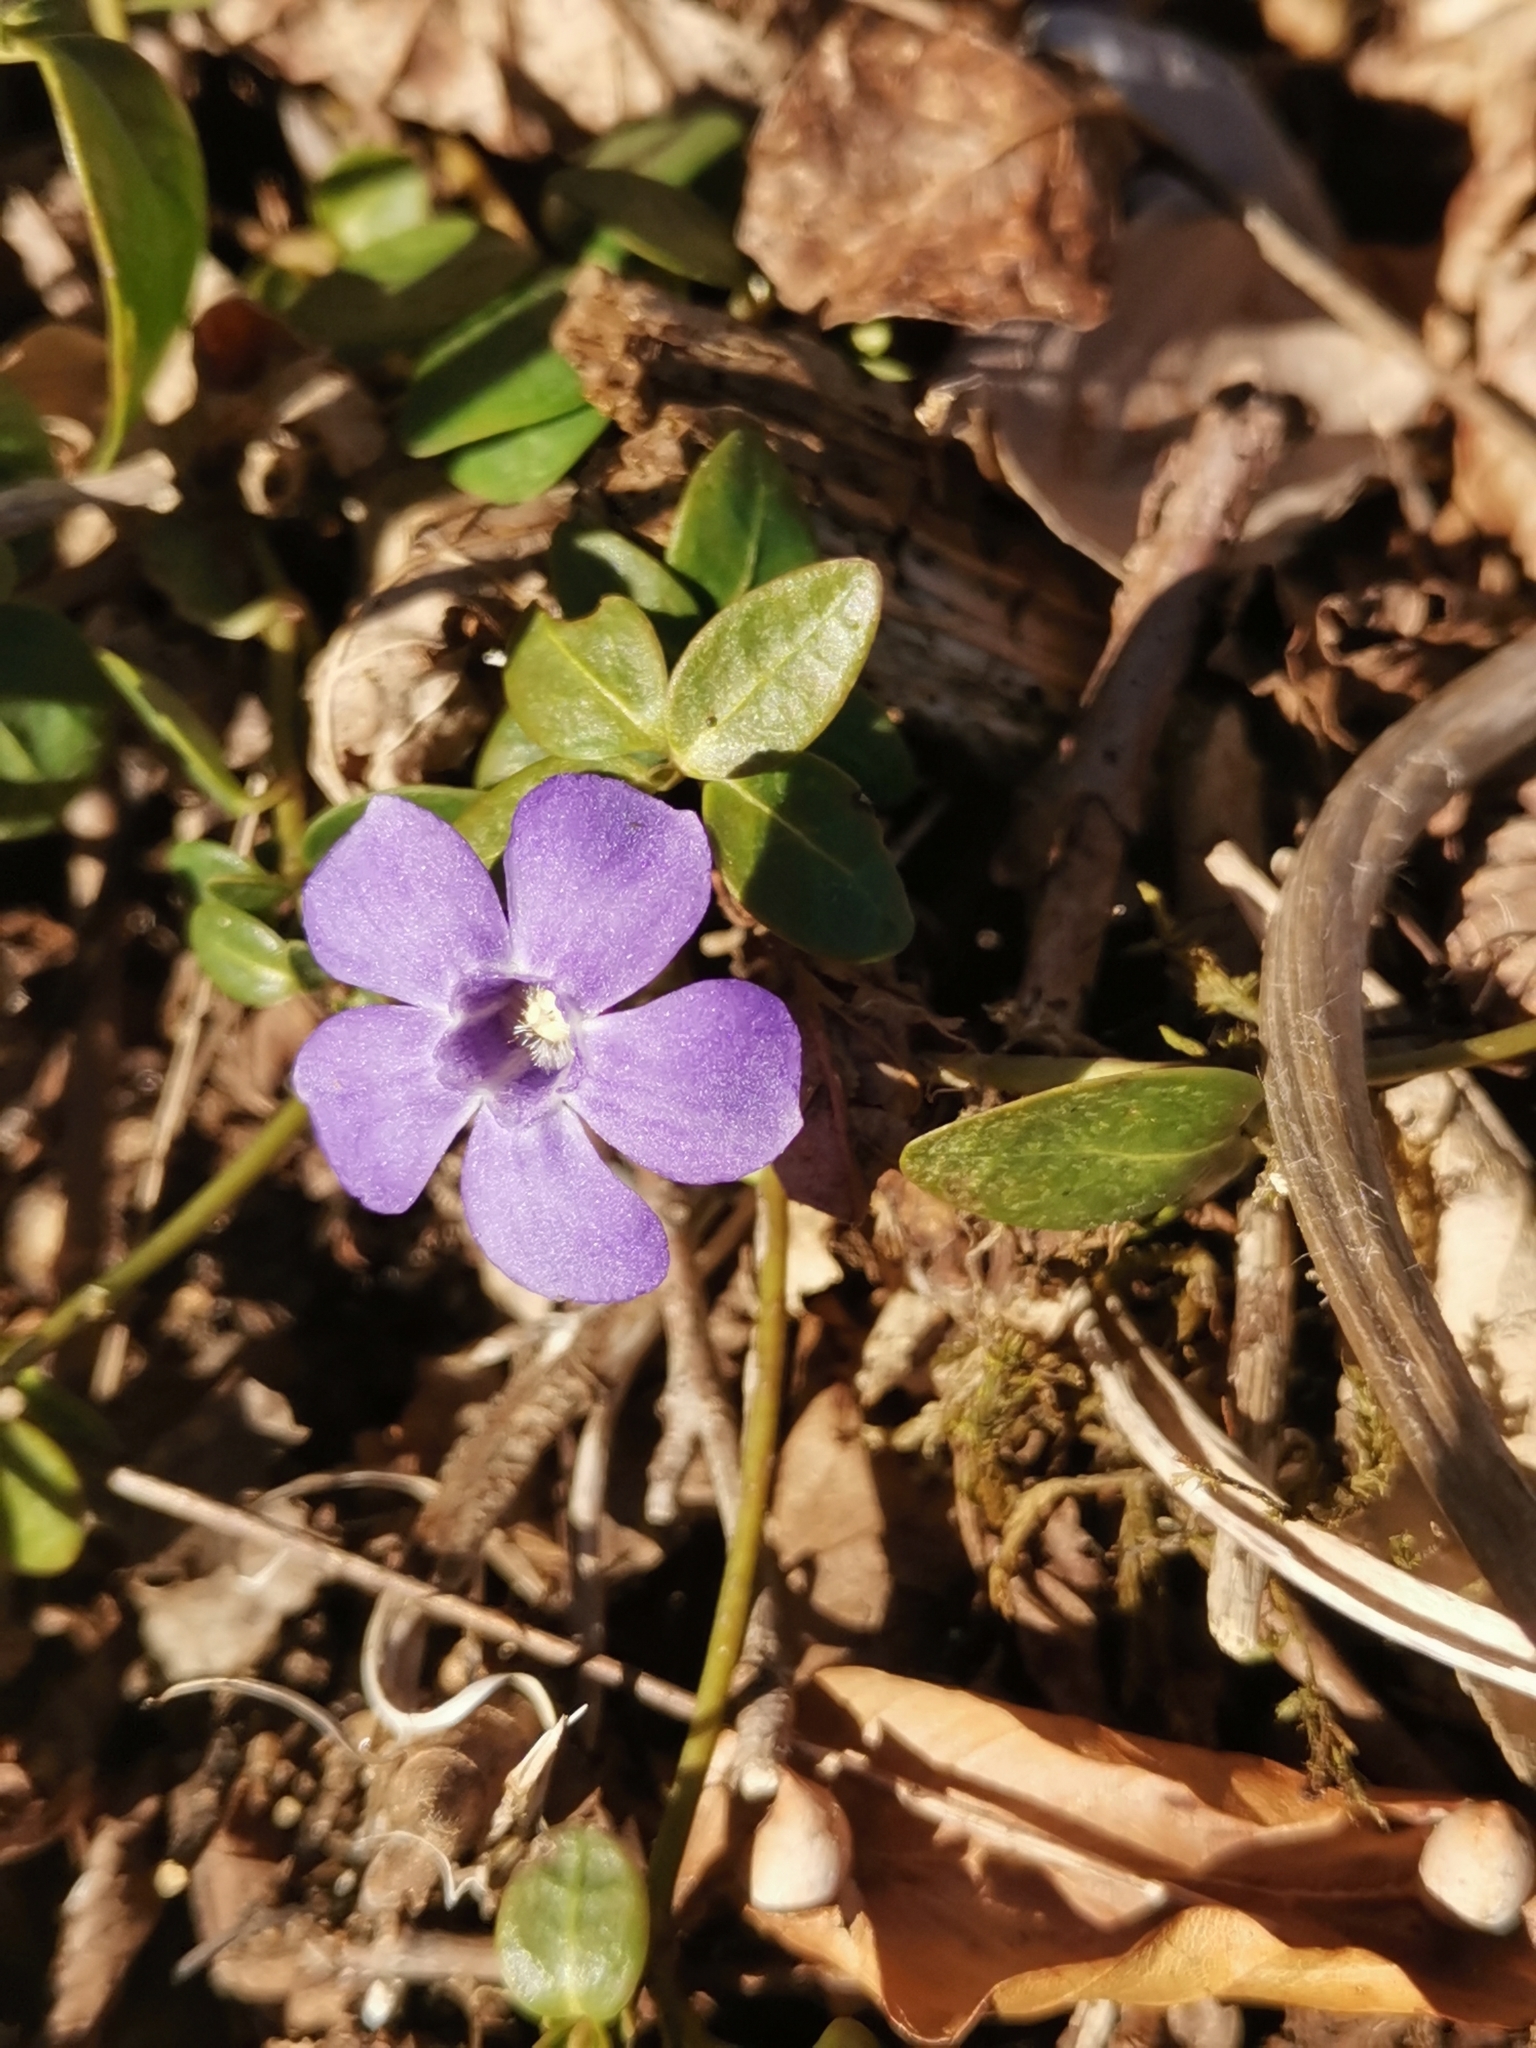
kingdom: Plantae
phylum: Tracheophyta
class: Magnoliopsida
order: Gentianales
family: Apocynaceae
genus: Vinca
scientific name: Vinca minor
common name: Lesser periwinkle
